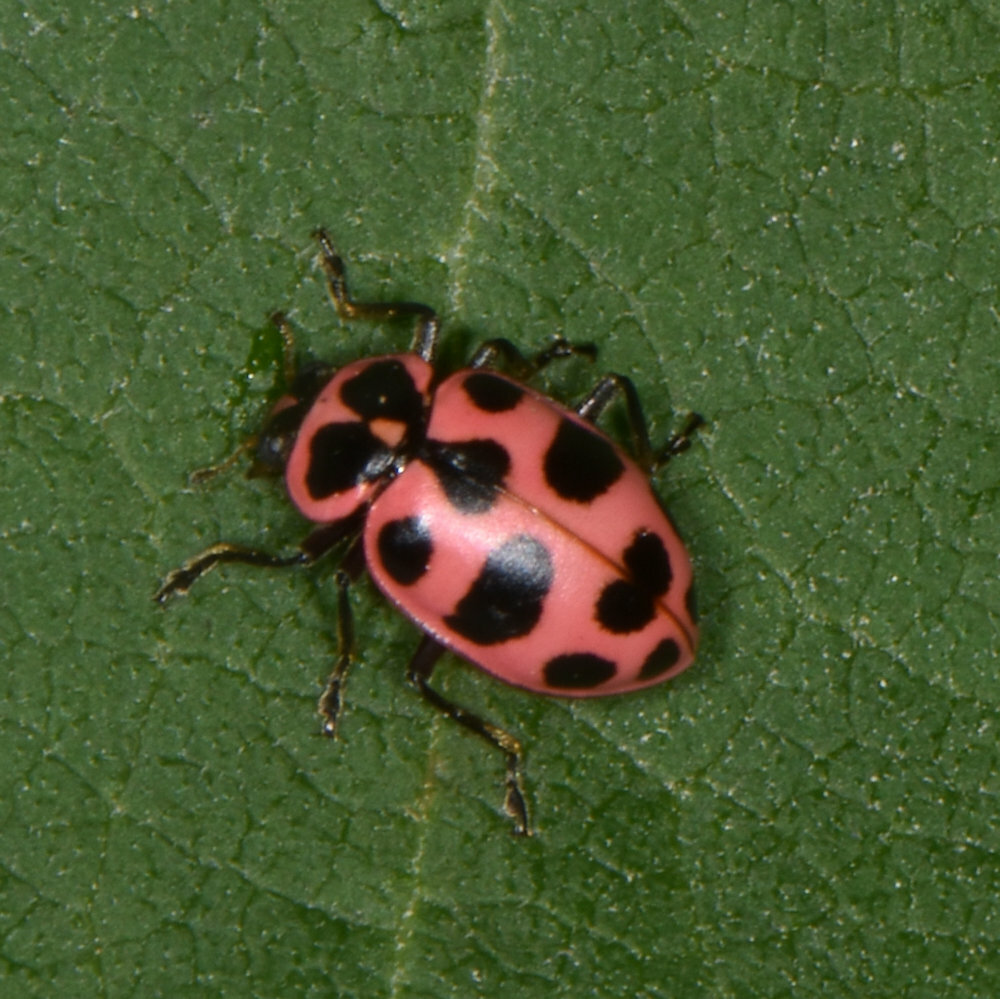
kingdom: Animalia
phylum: Arthropoda
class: Insecta
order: Coleoptera
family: Coccinellidae
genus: Coleomegilla
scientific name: Coleomegilla maculata
